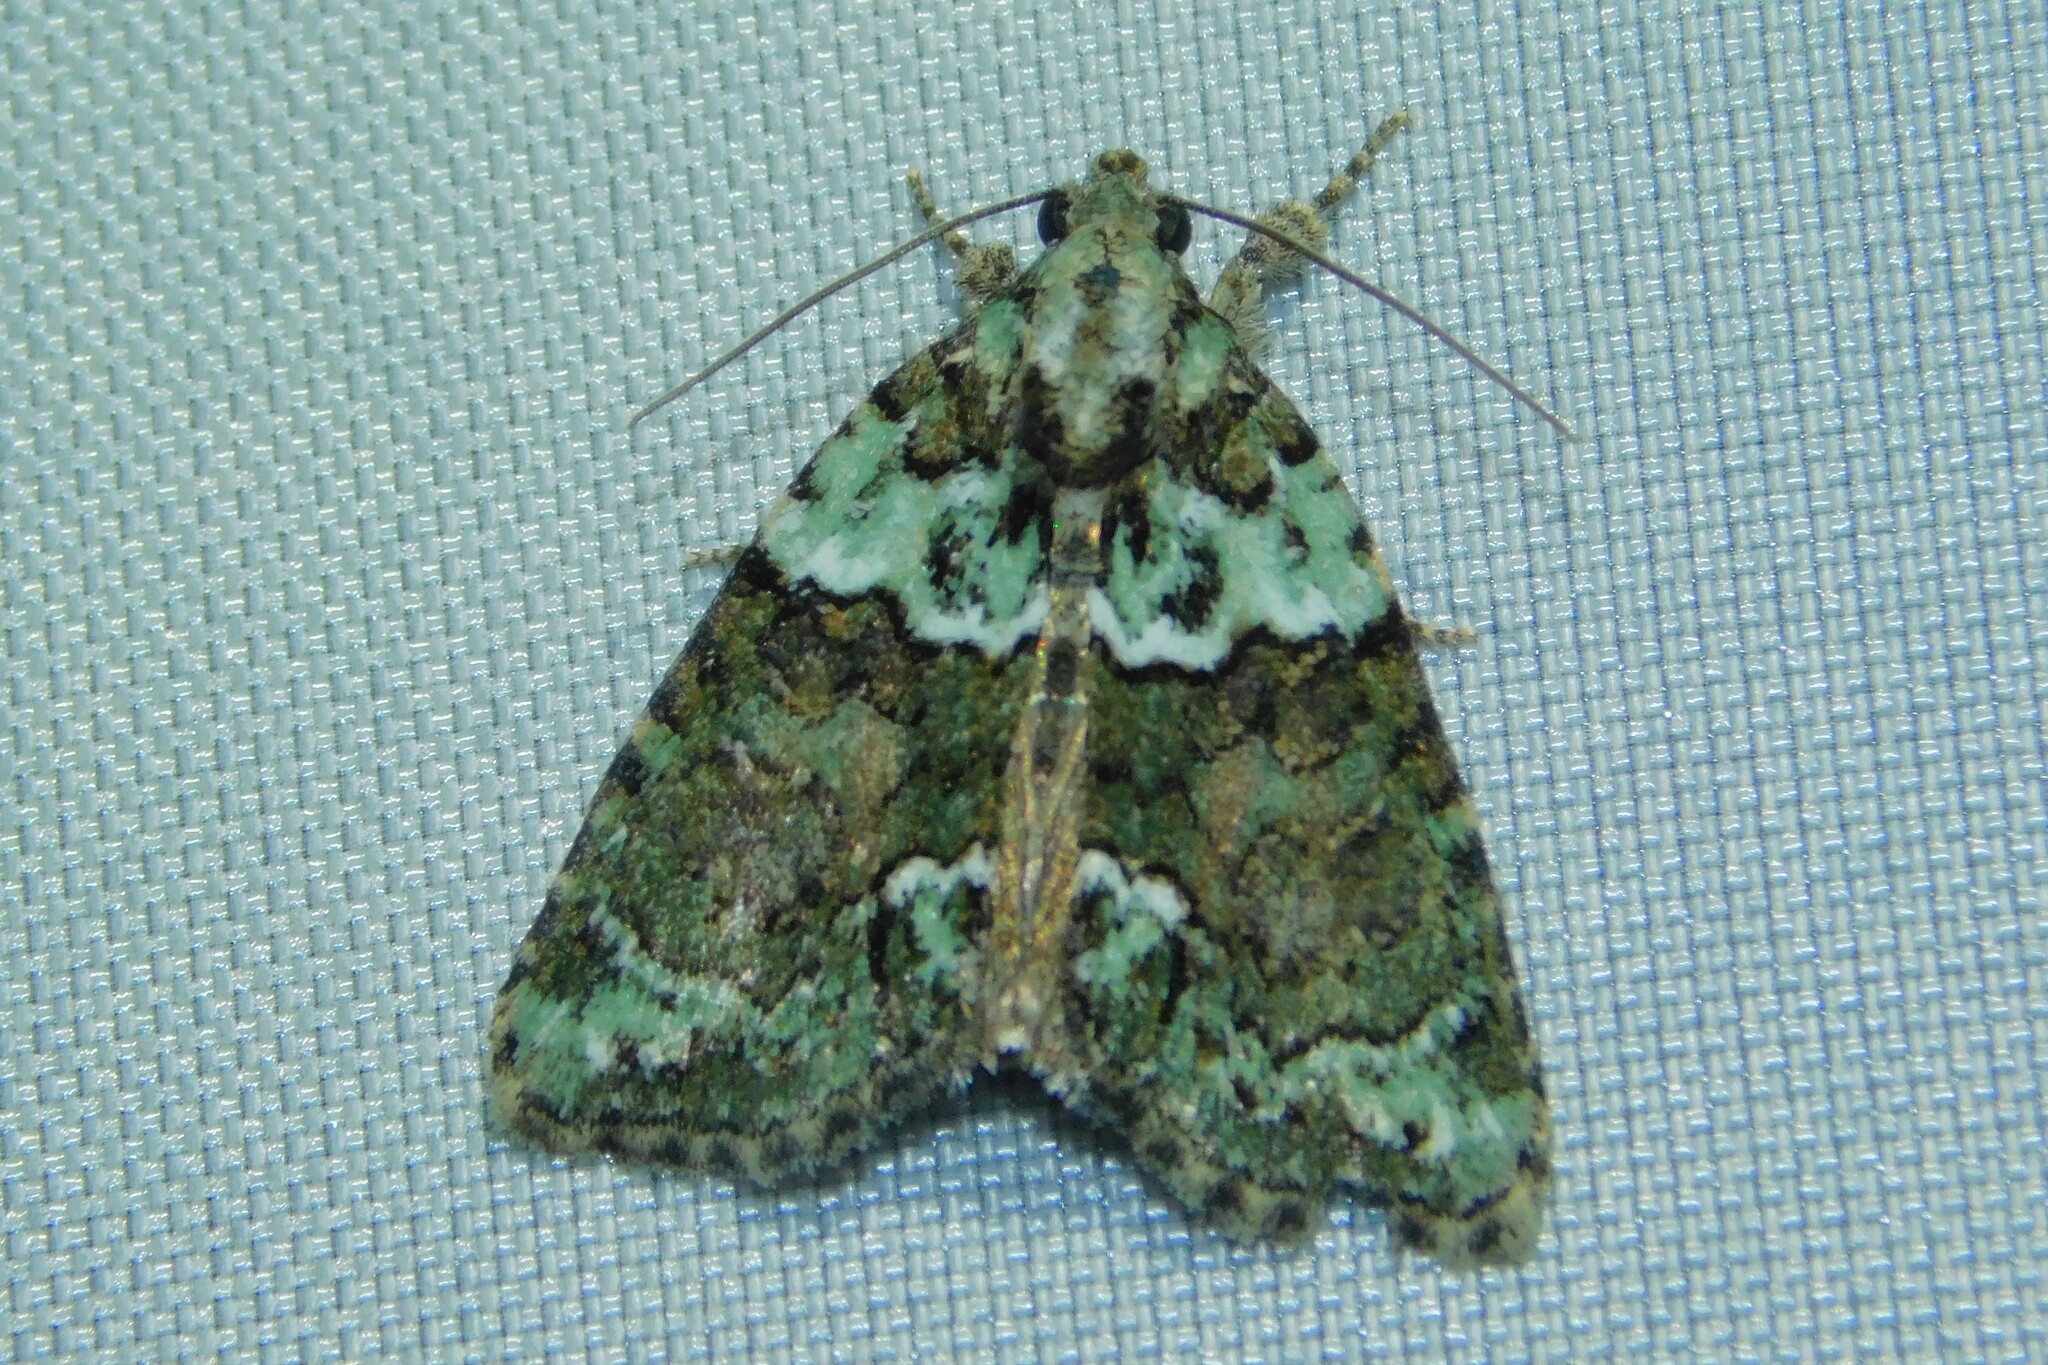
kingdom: Animalia
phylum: Arthropoda
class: Insecta
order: Lepidoptera
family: Noctuidae
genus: Cryphia
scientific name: Cryphia algae
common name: Tree-lichen beauty
